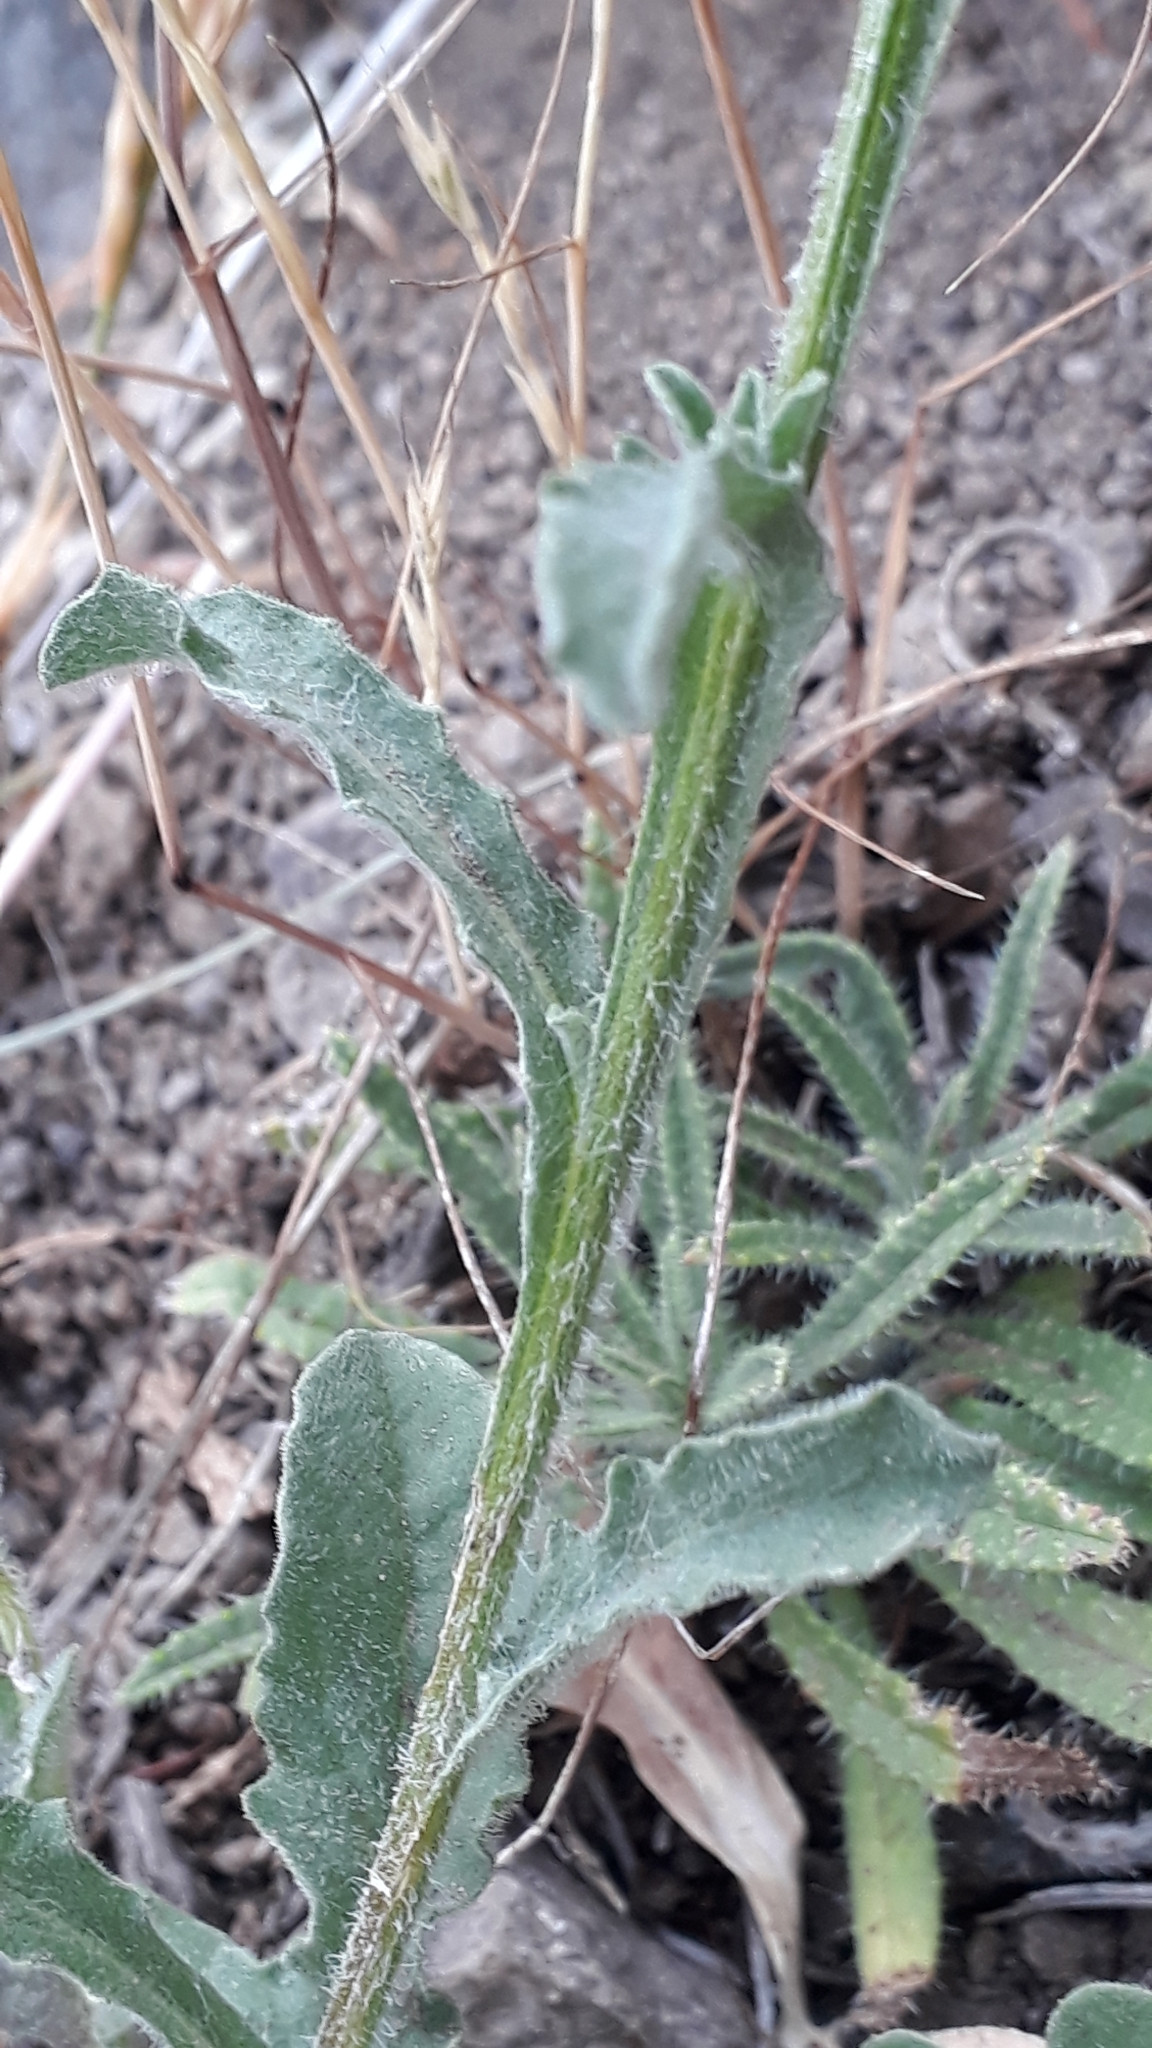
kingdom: Plantae
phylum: Tracheophyta
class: Magnoliopsida
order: Asterales
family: Asteraceae
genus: Centaurea
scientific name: Centaurea melitensis
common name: Maltese star-thistle
